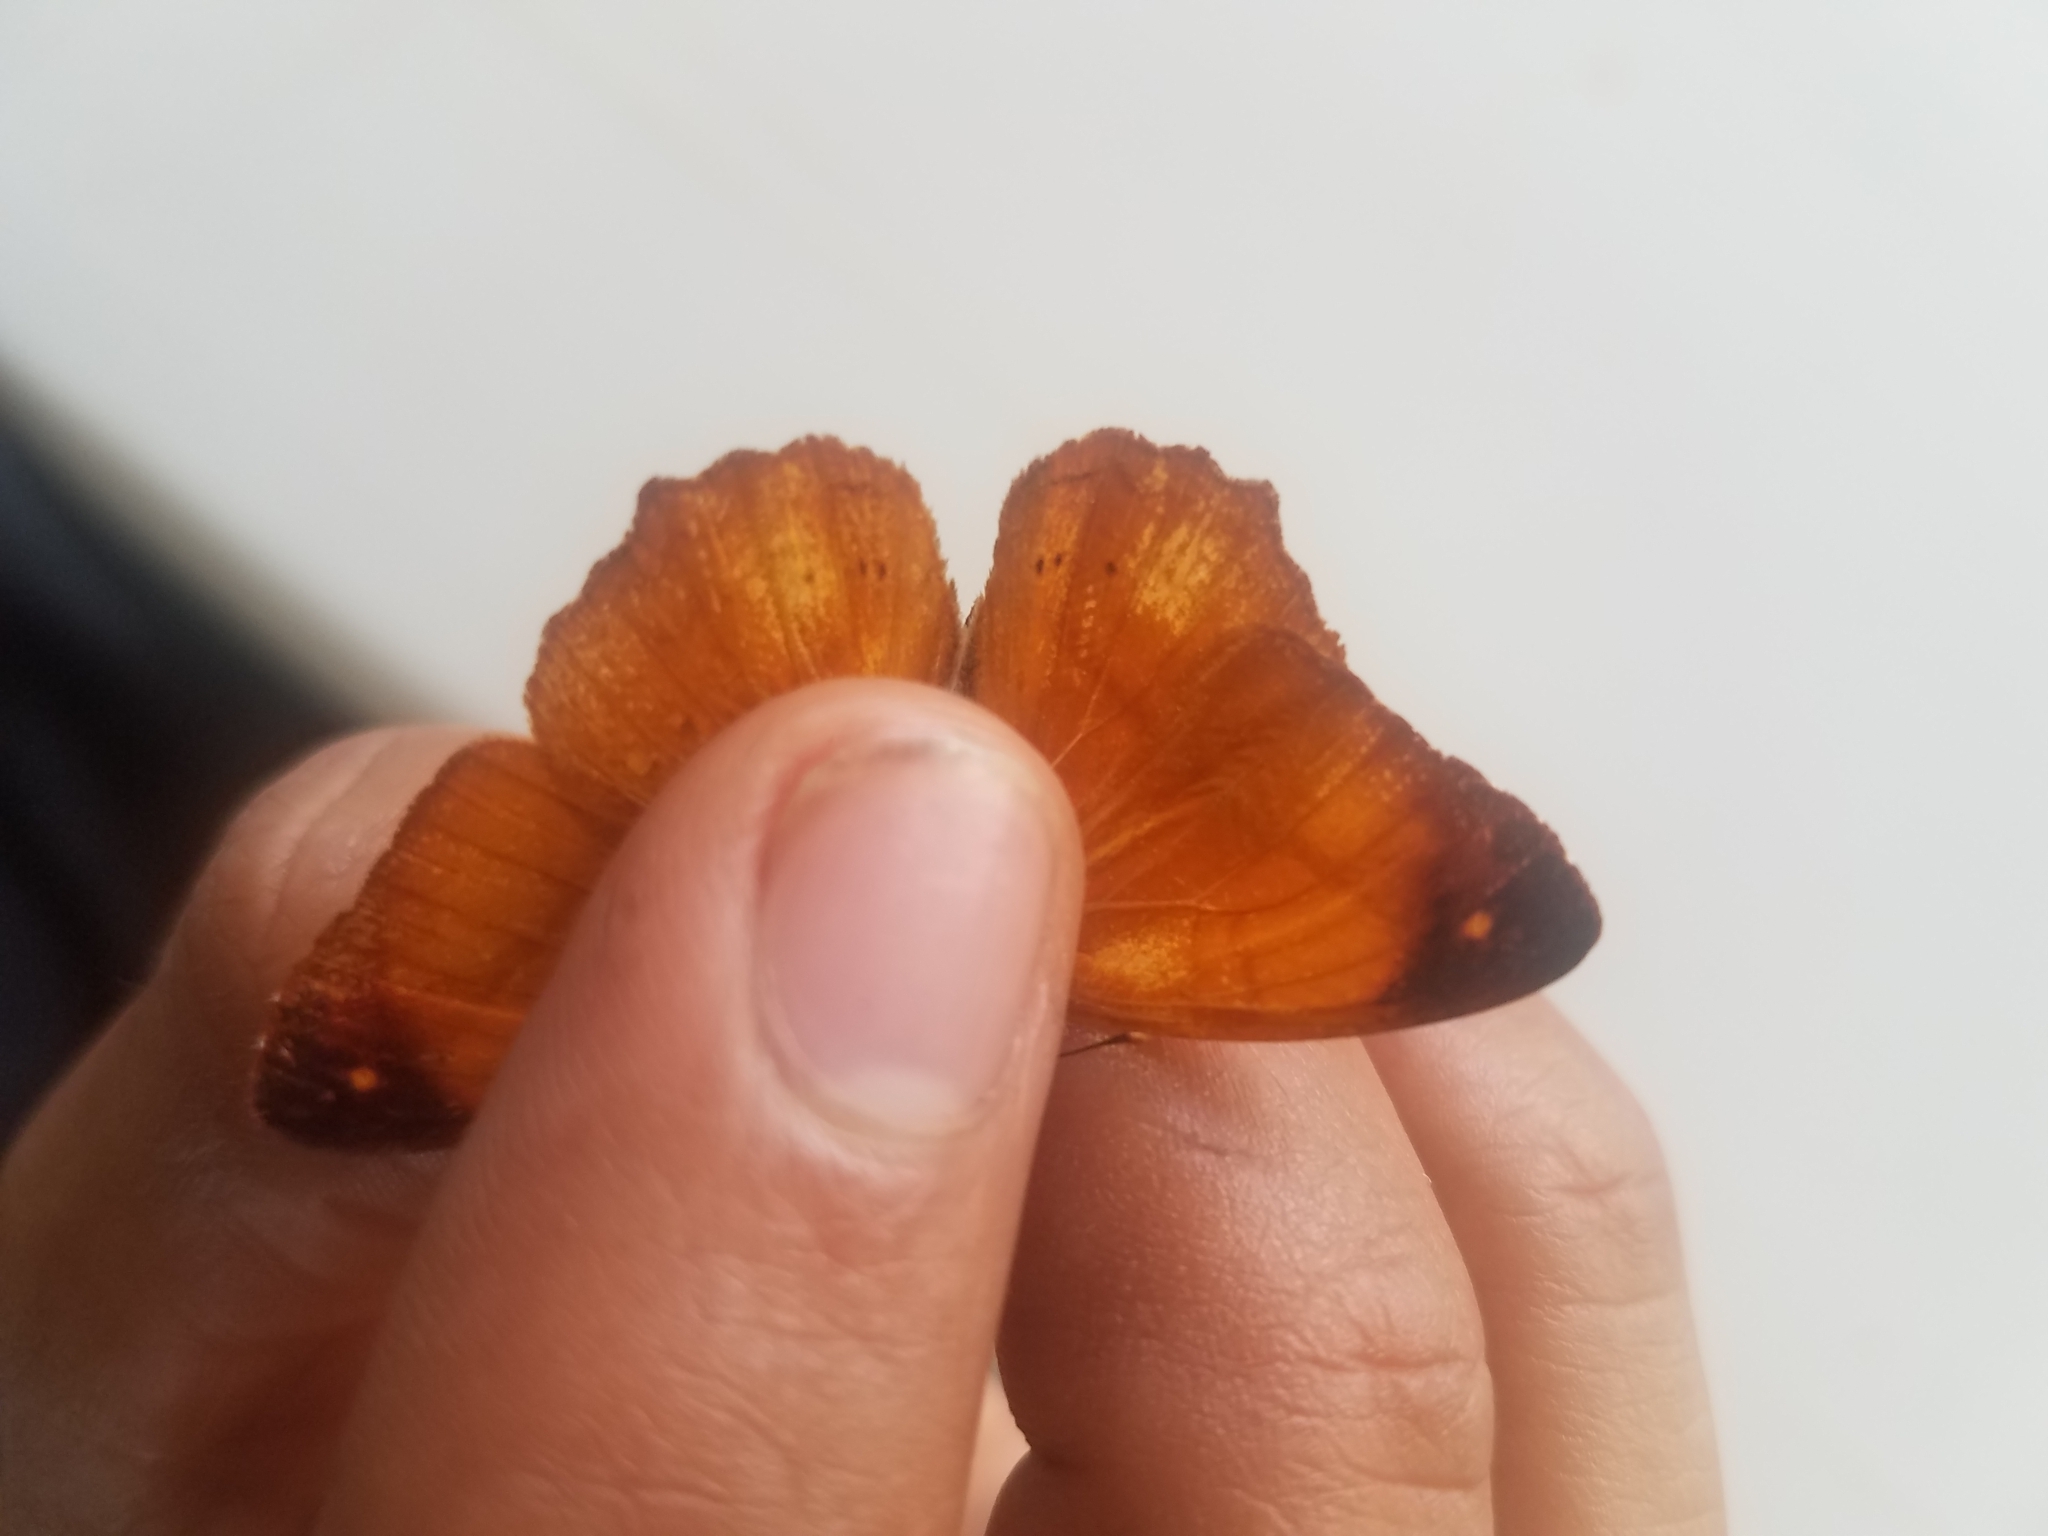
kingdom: Animalia
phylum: Arthropoda
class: Insecta
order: Lepidoptera
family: Nymphalidae
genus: Nica
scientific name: Nica flavilla
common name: Mandarin nica
